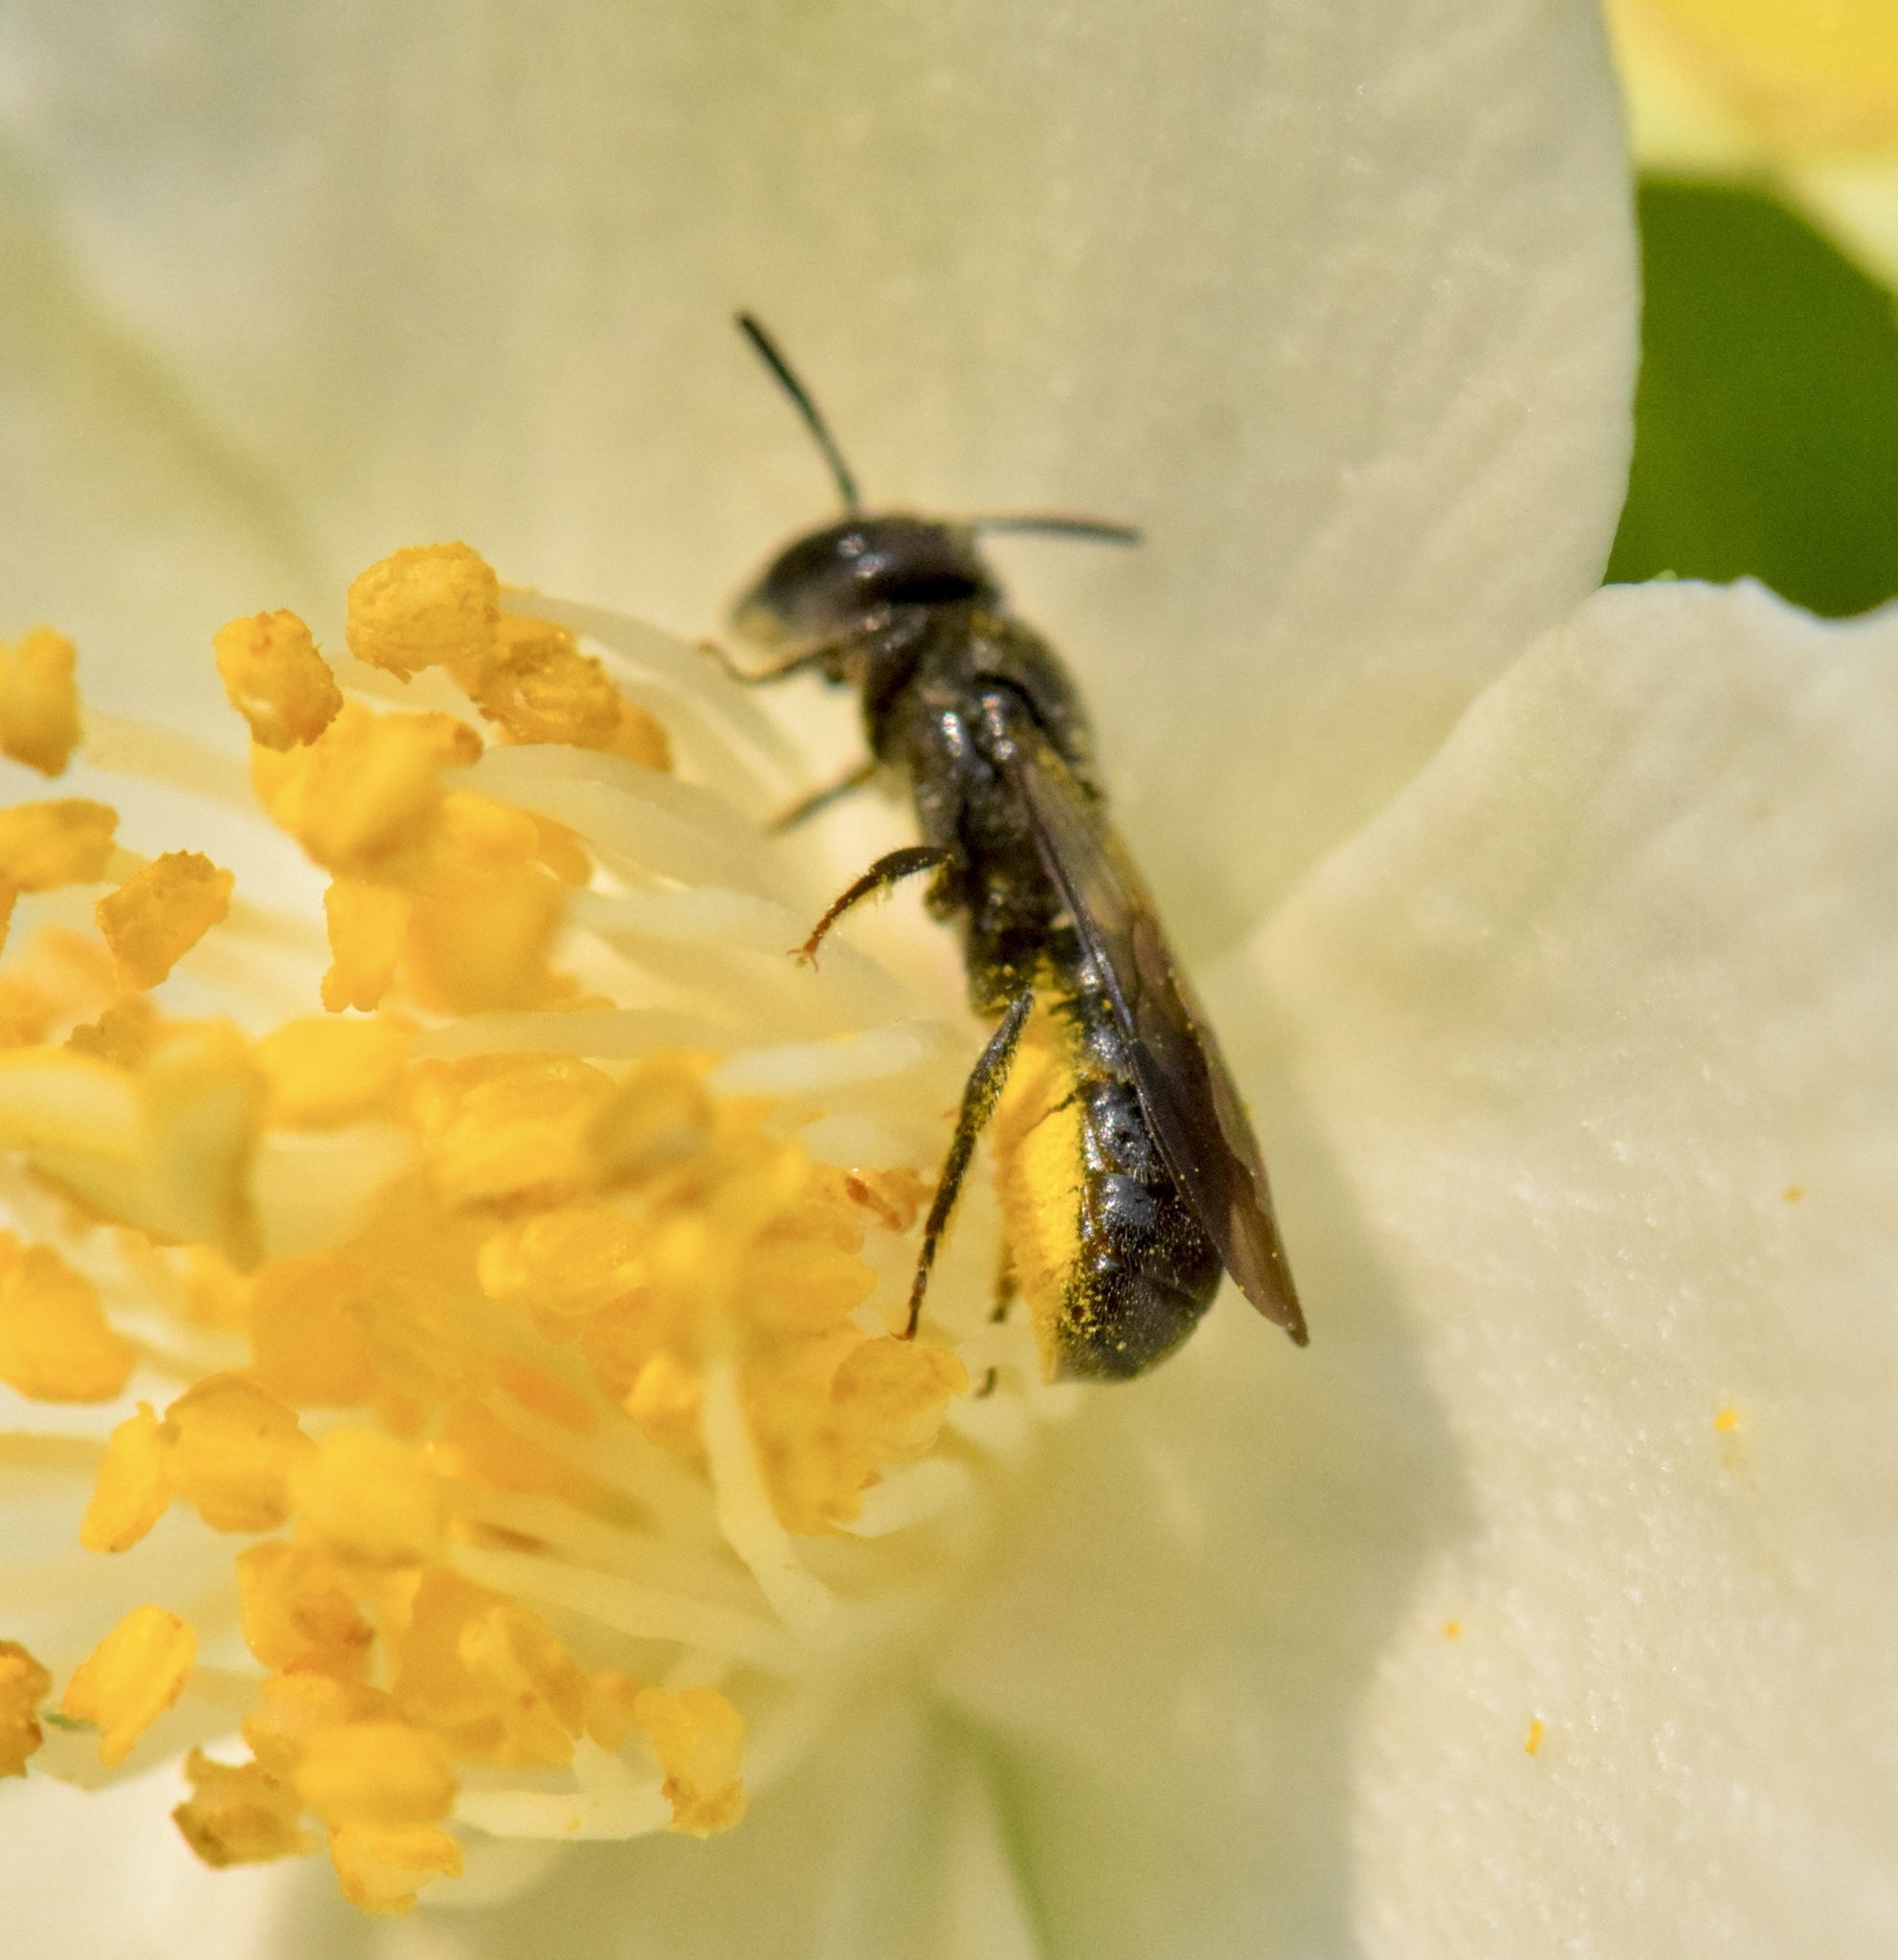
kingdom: Animalia
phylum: Arthropoda
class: Insecta
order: Hymenoptera
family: Megachilidae
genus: Chelostoma
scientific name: Chelostoma philadelphi
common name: Mock-orange scissor bee
